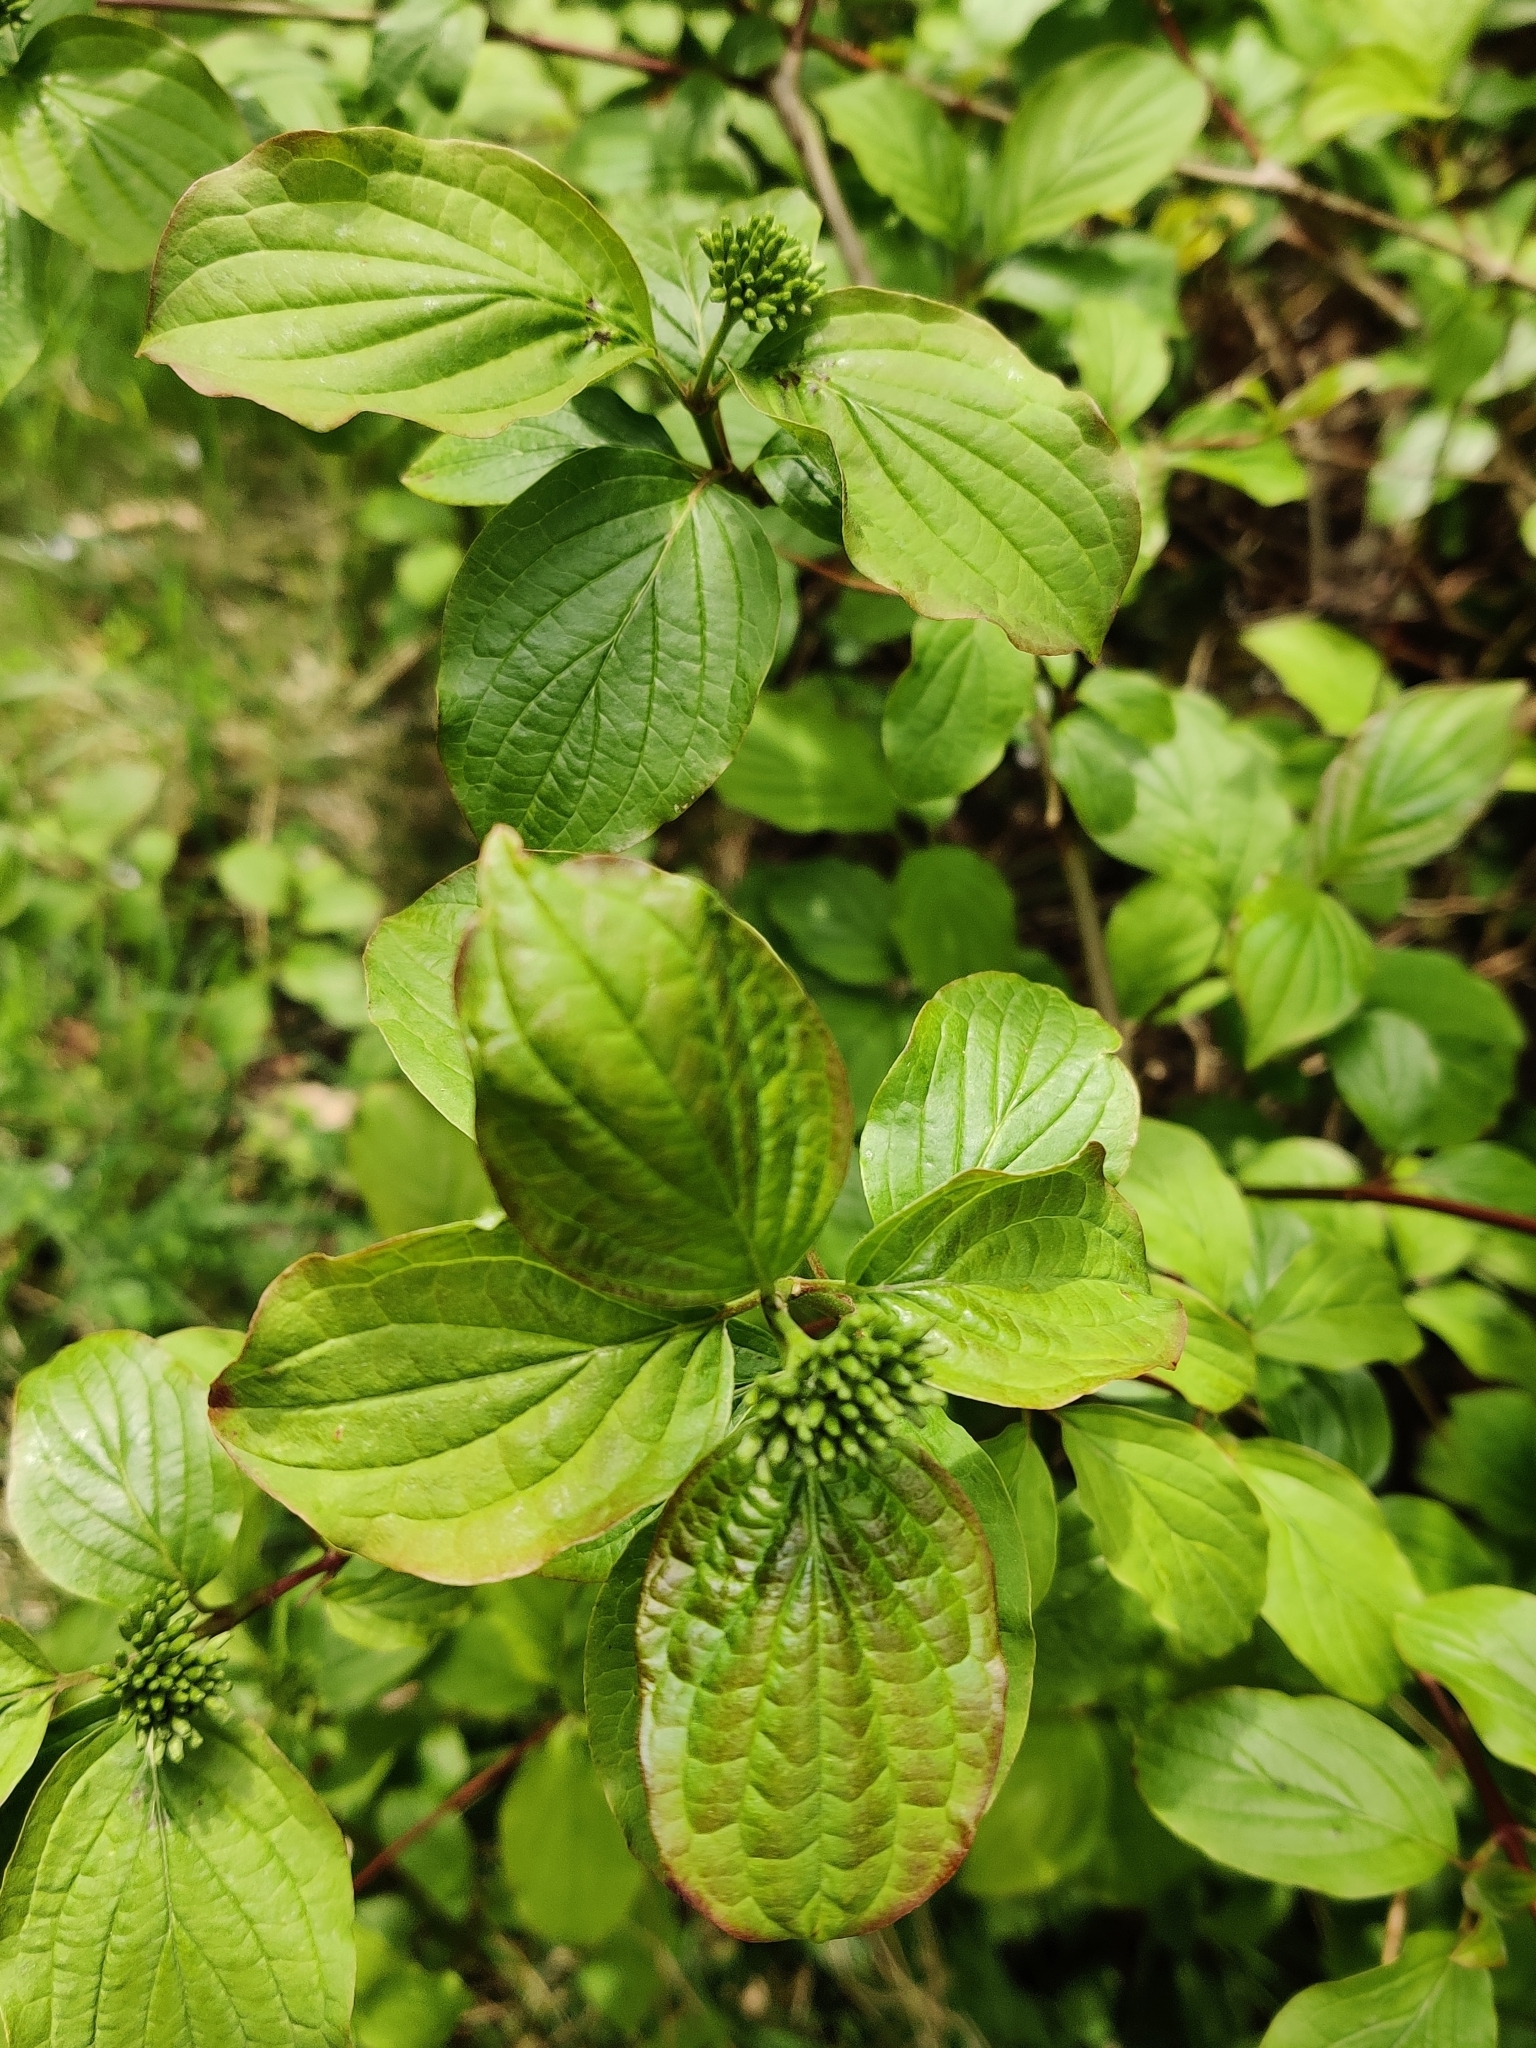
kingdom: Plantae
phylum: Tracheophyta
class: Magnoliopsida
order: Cornales
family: Cornaceae
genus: Cornus
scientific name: Cornus sanguinea
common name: Dogwood
